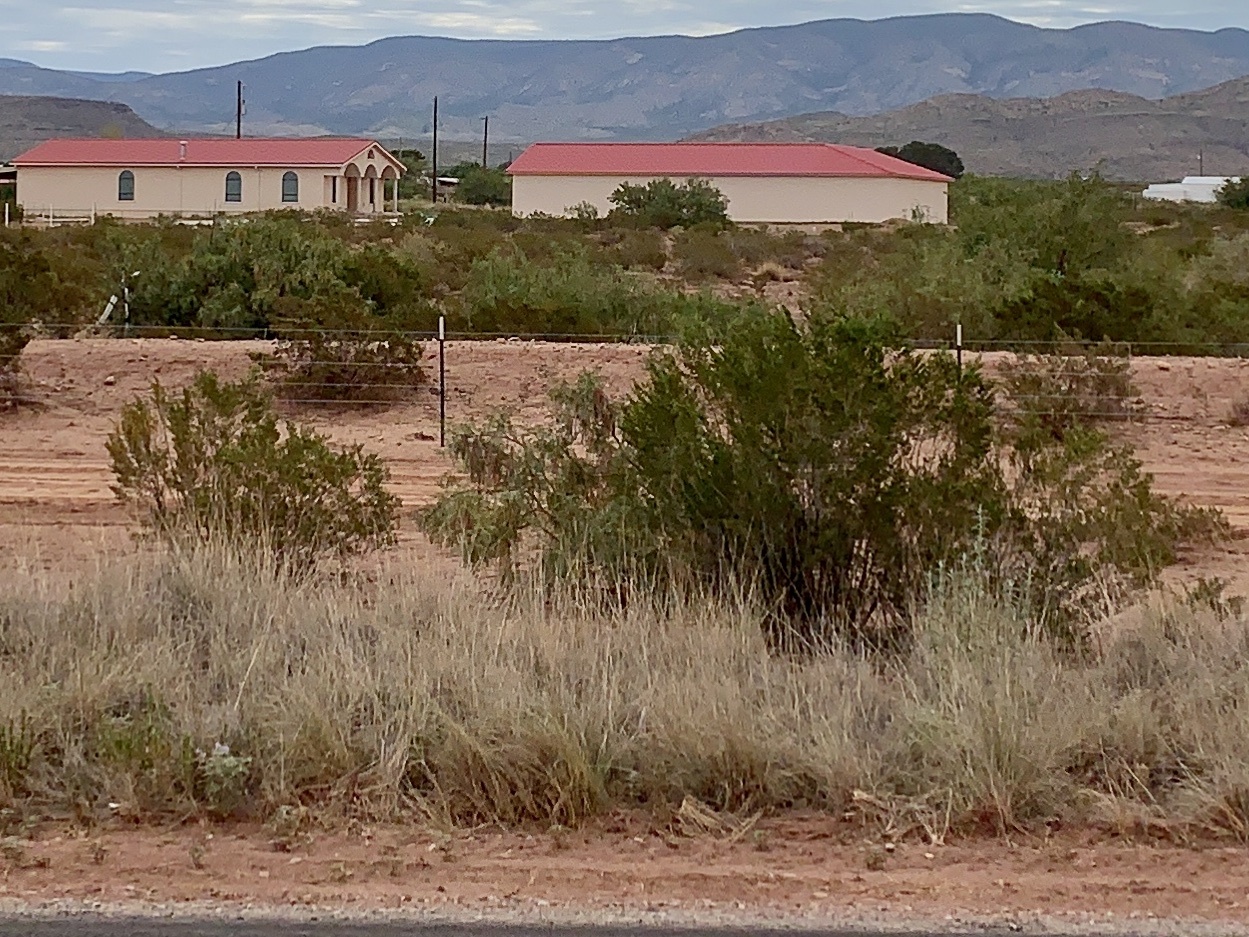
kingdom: Plantae
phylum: Tracheophyta
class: Magnoliopsida
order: Zygophyllales
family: Zygophyllaceae
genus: Larrea
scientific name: Larrea tridentata
